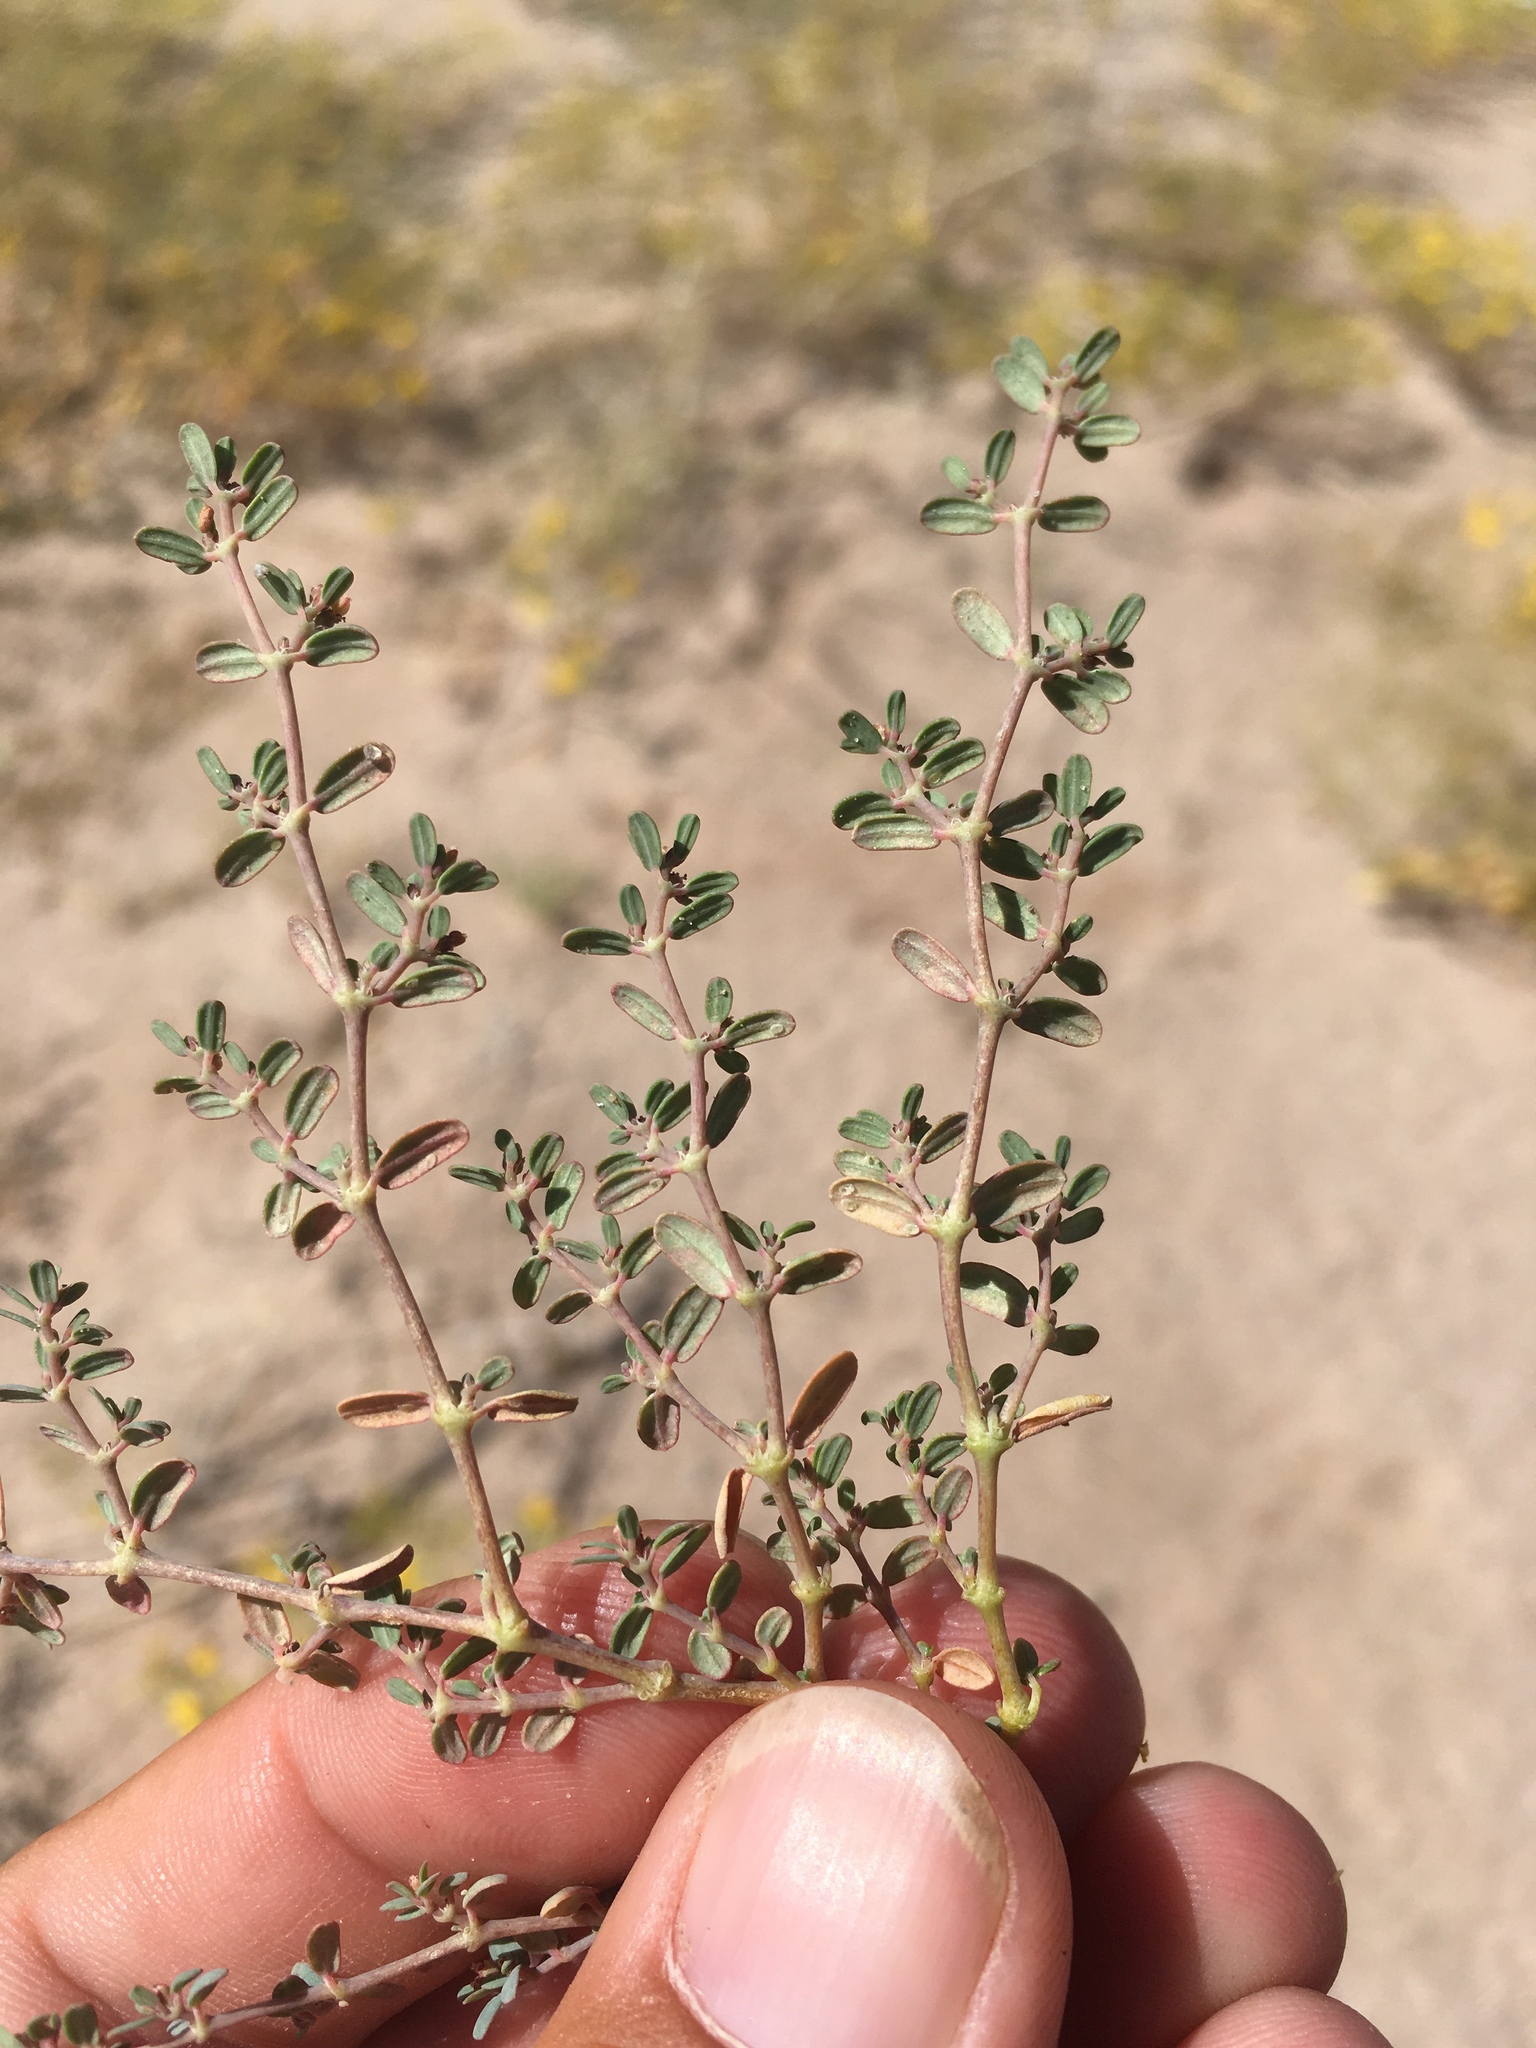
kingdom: Plantae
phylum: Tracheophyta
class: Magnoliopsida
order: Malpighiales
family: Euphorbiaceae
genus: Euphorbia
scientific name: Euphorbia golondrina
